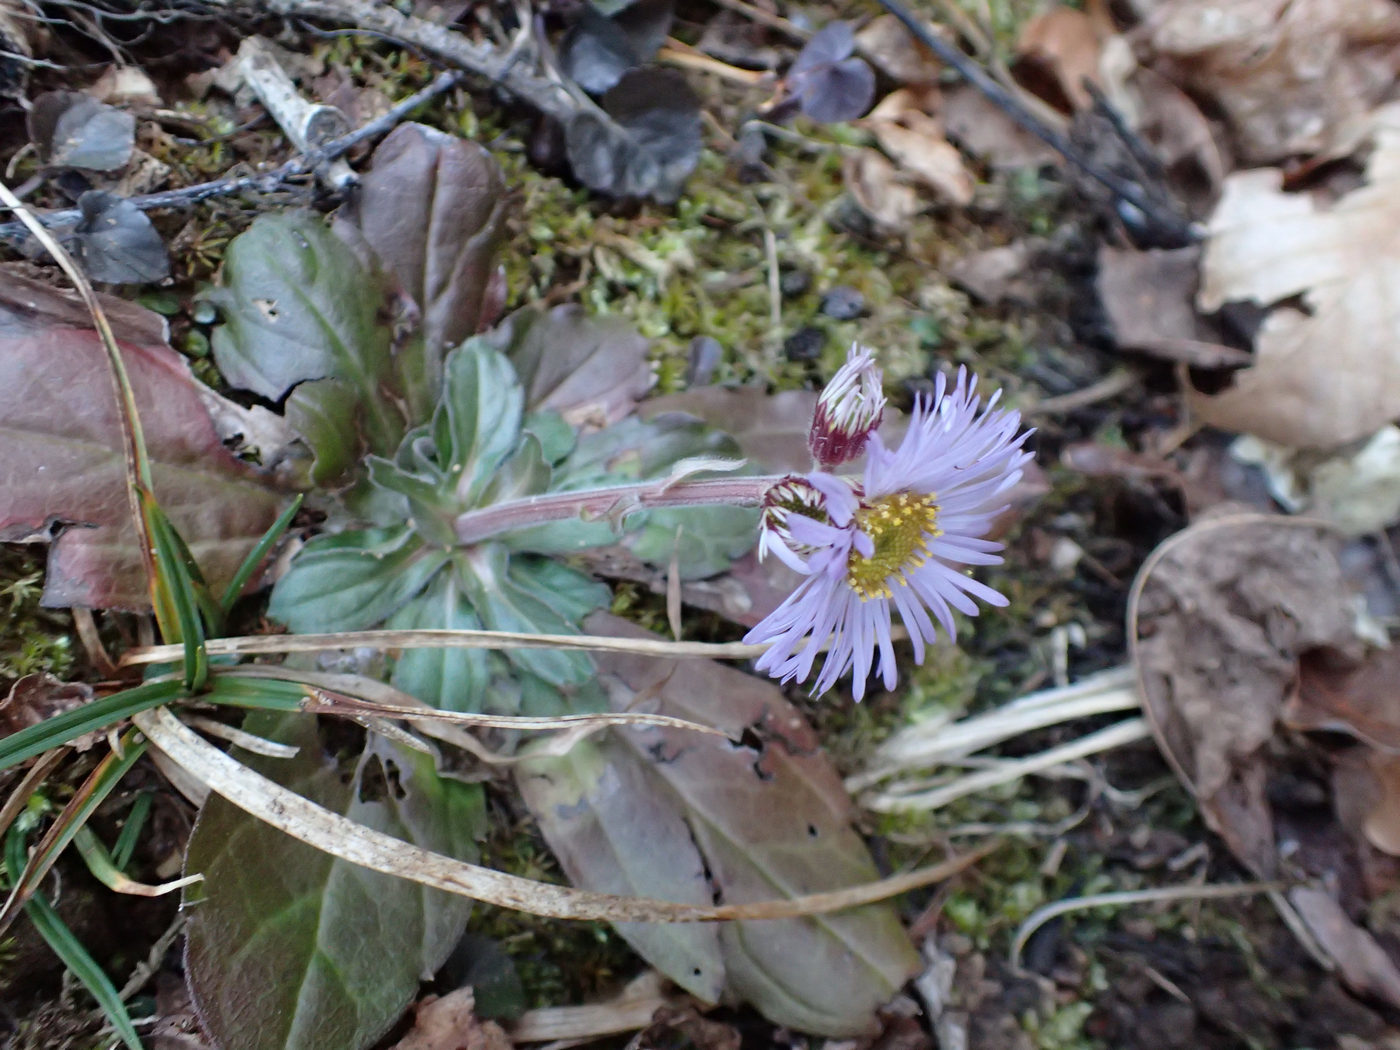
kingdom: Plantae
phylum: Tracheophyta
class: Magnoliopsida
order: Asterales
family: Asteraceae
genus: Erigeron
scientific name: Erigeron pulchellus
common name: Hairy fleabane
